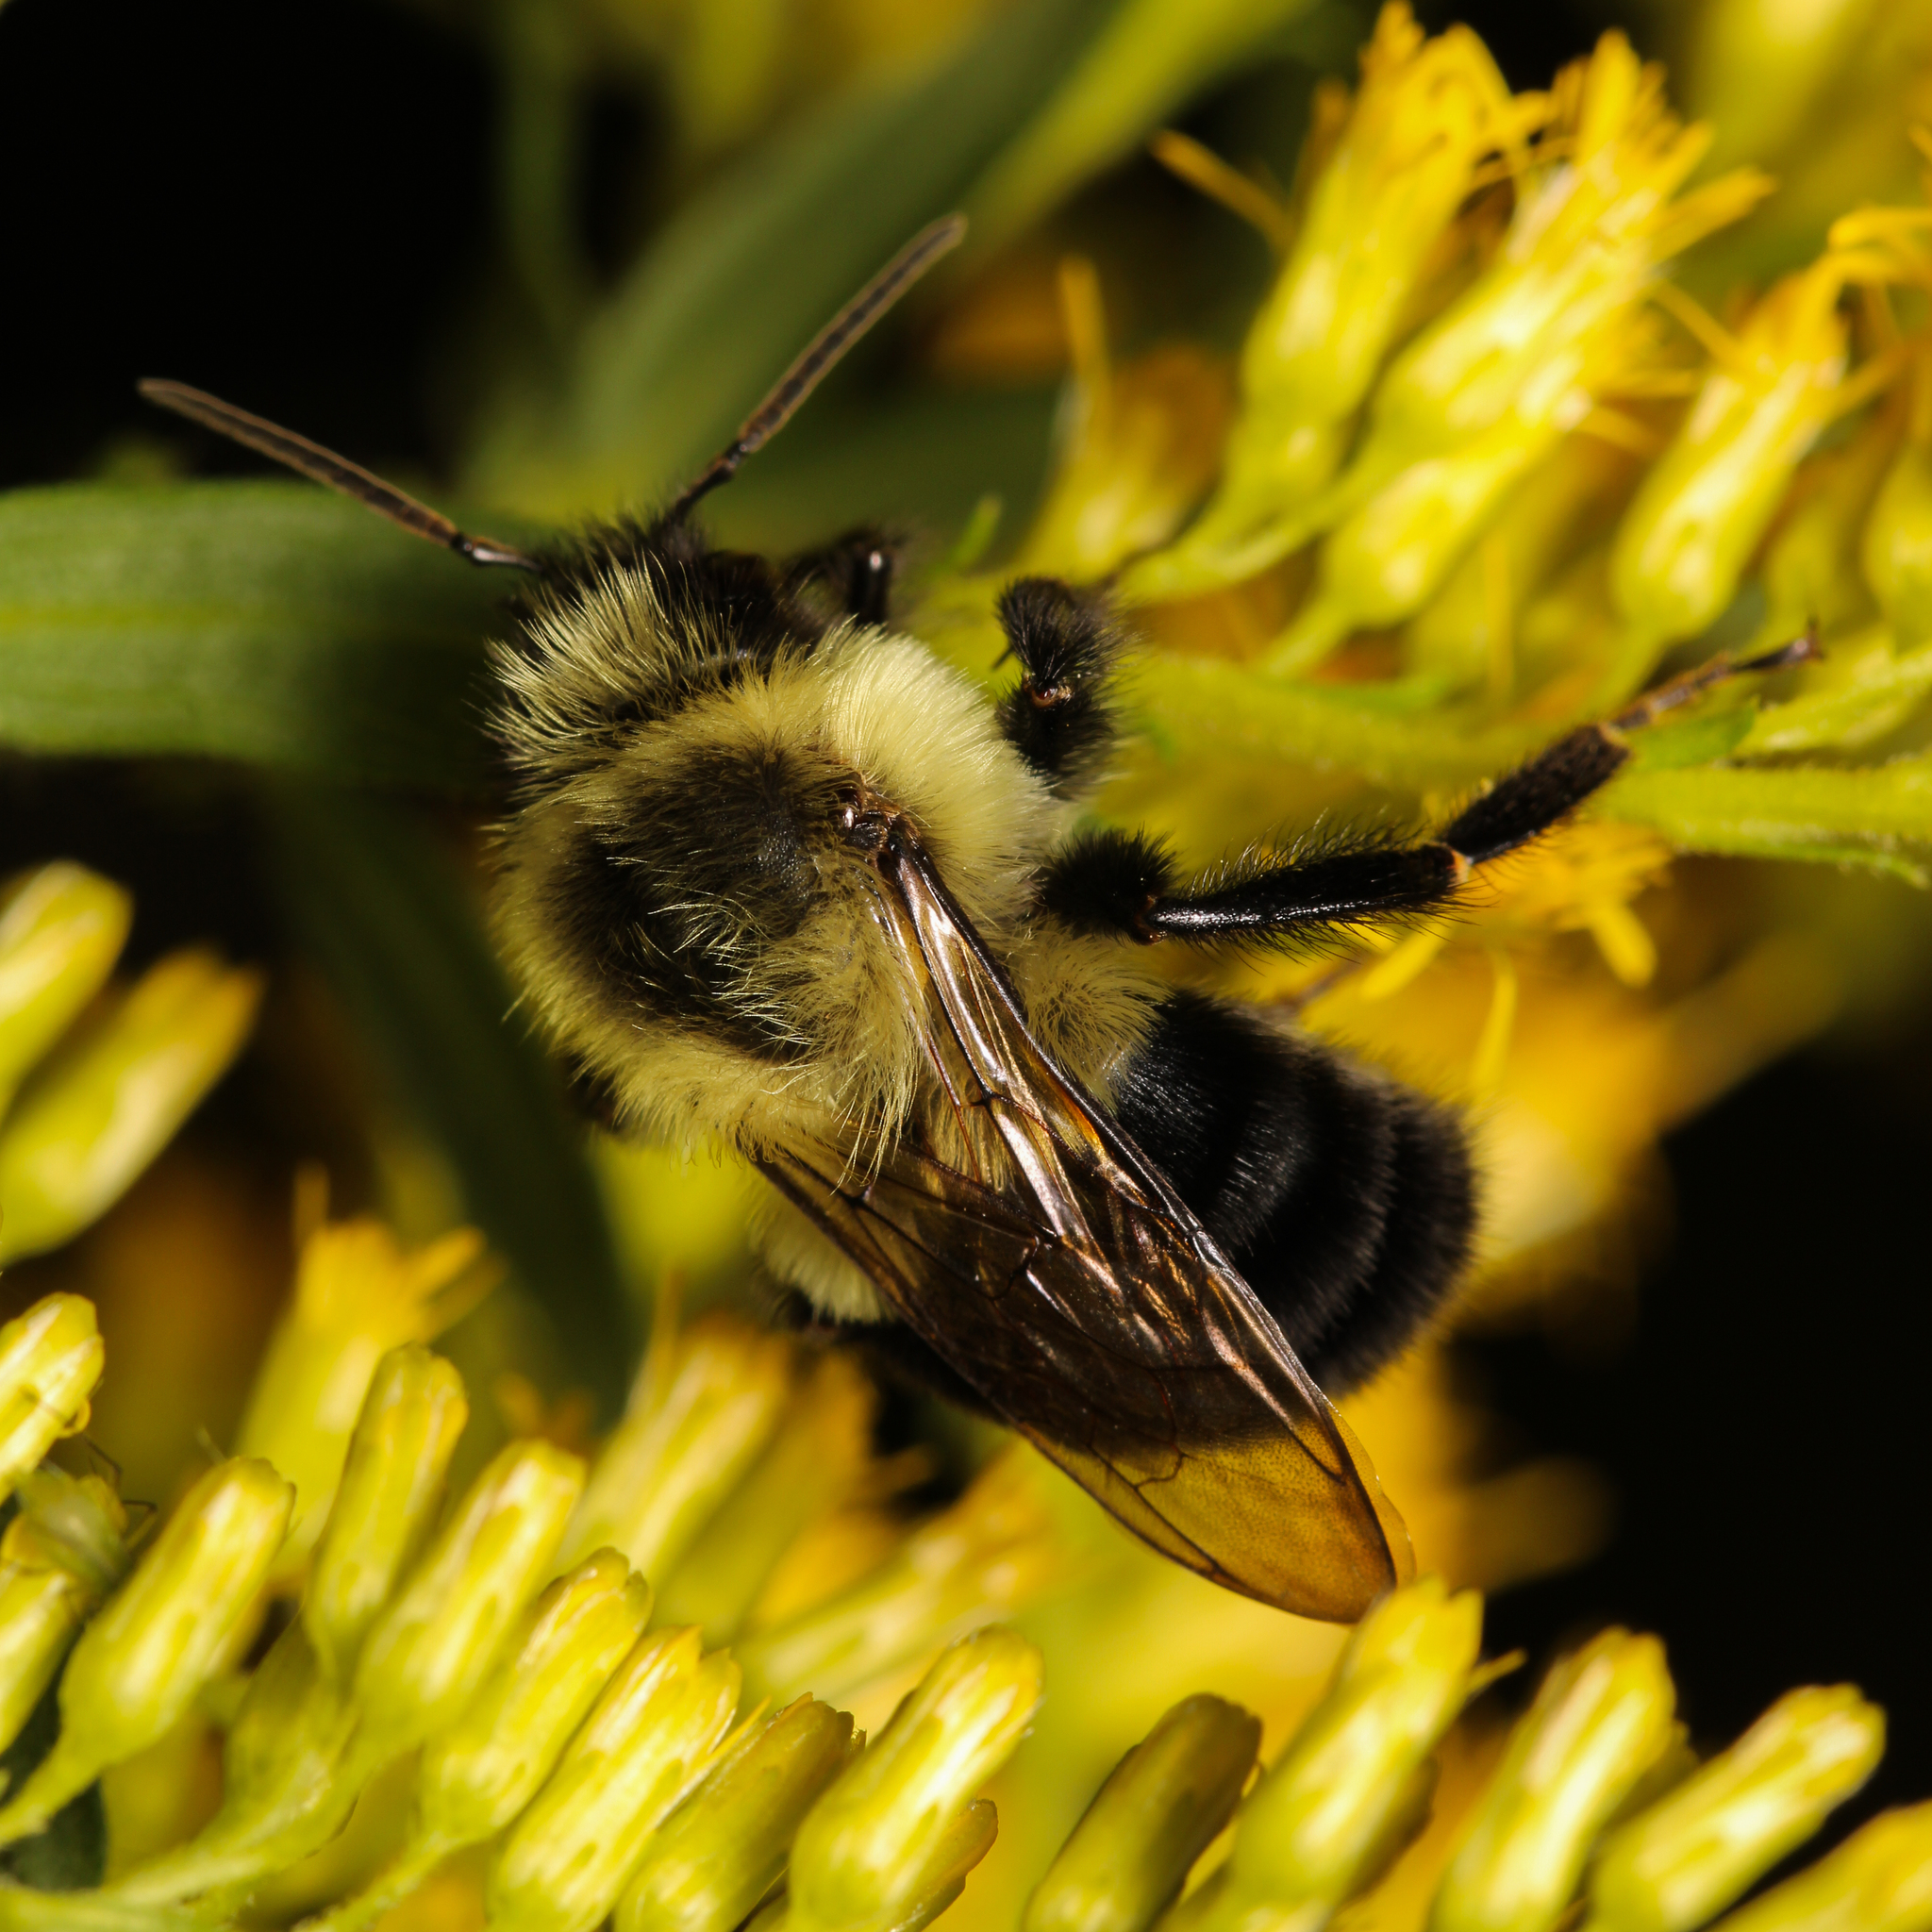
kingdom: Animalia
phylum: Arthropoda
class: Insecta
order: Hymenoptera
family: Apidae
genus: Bombus
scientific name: Bombus impatiens
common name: Common eastern bumble bee
